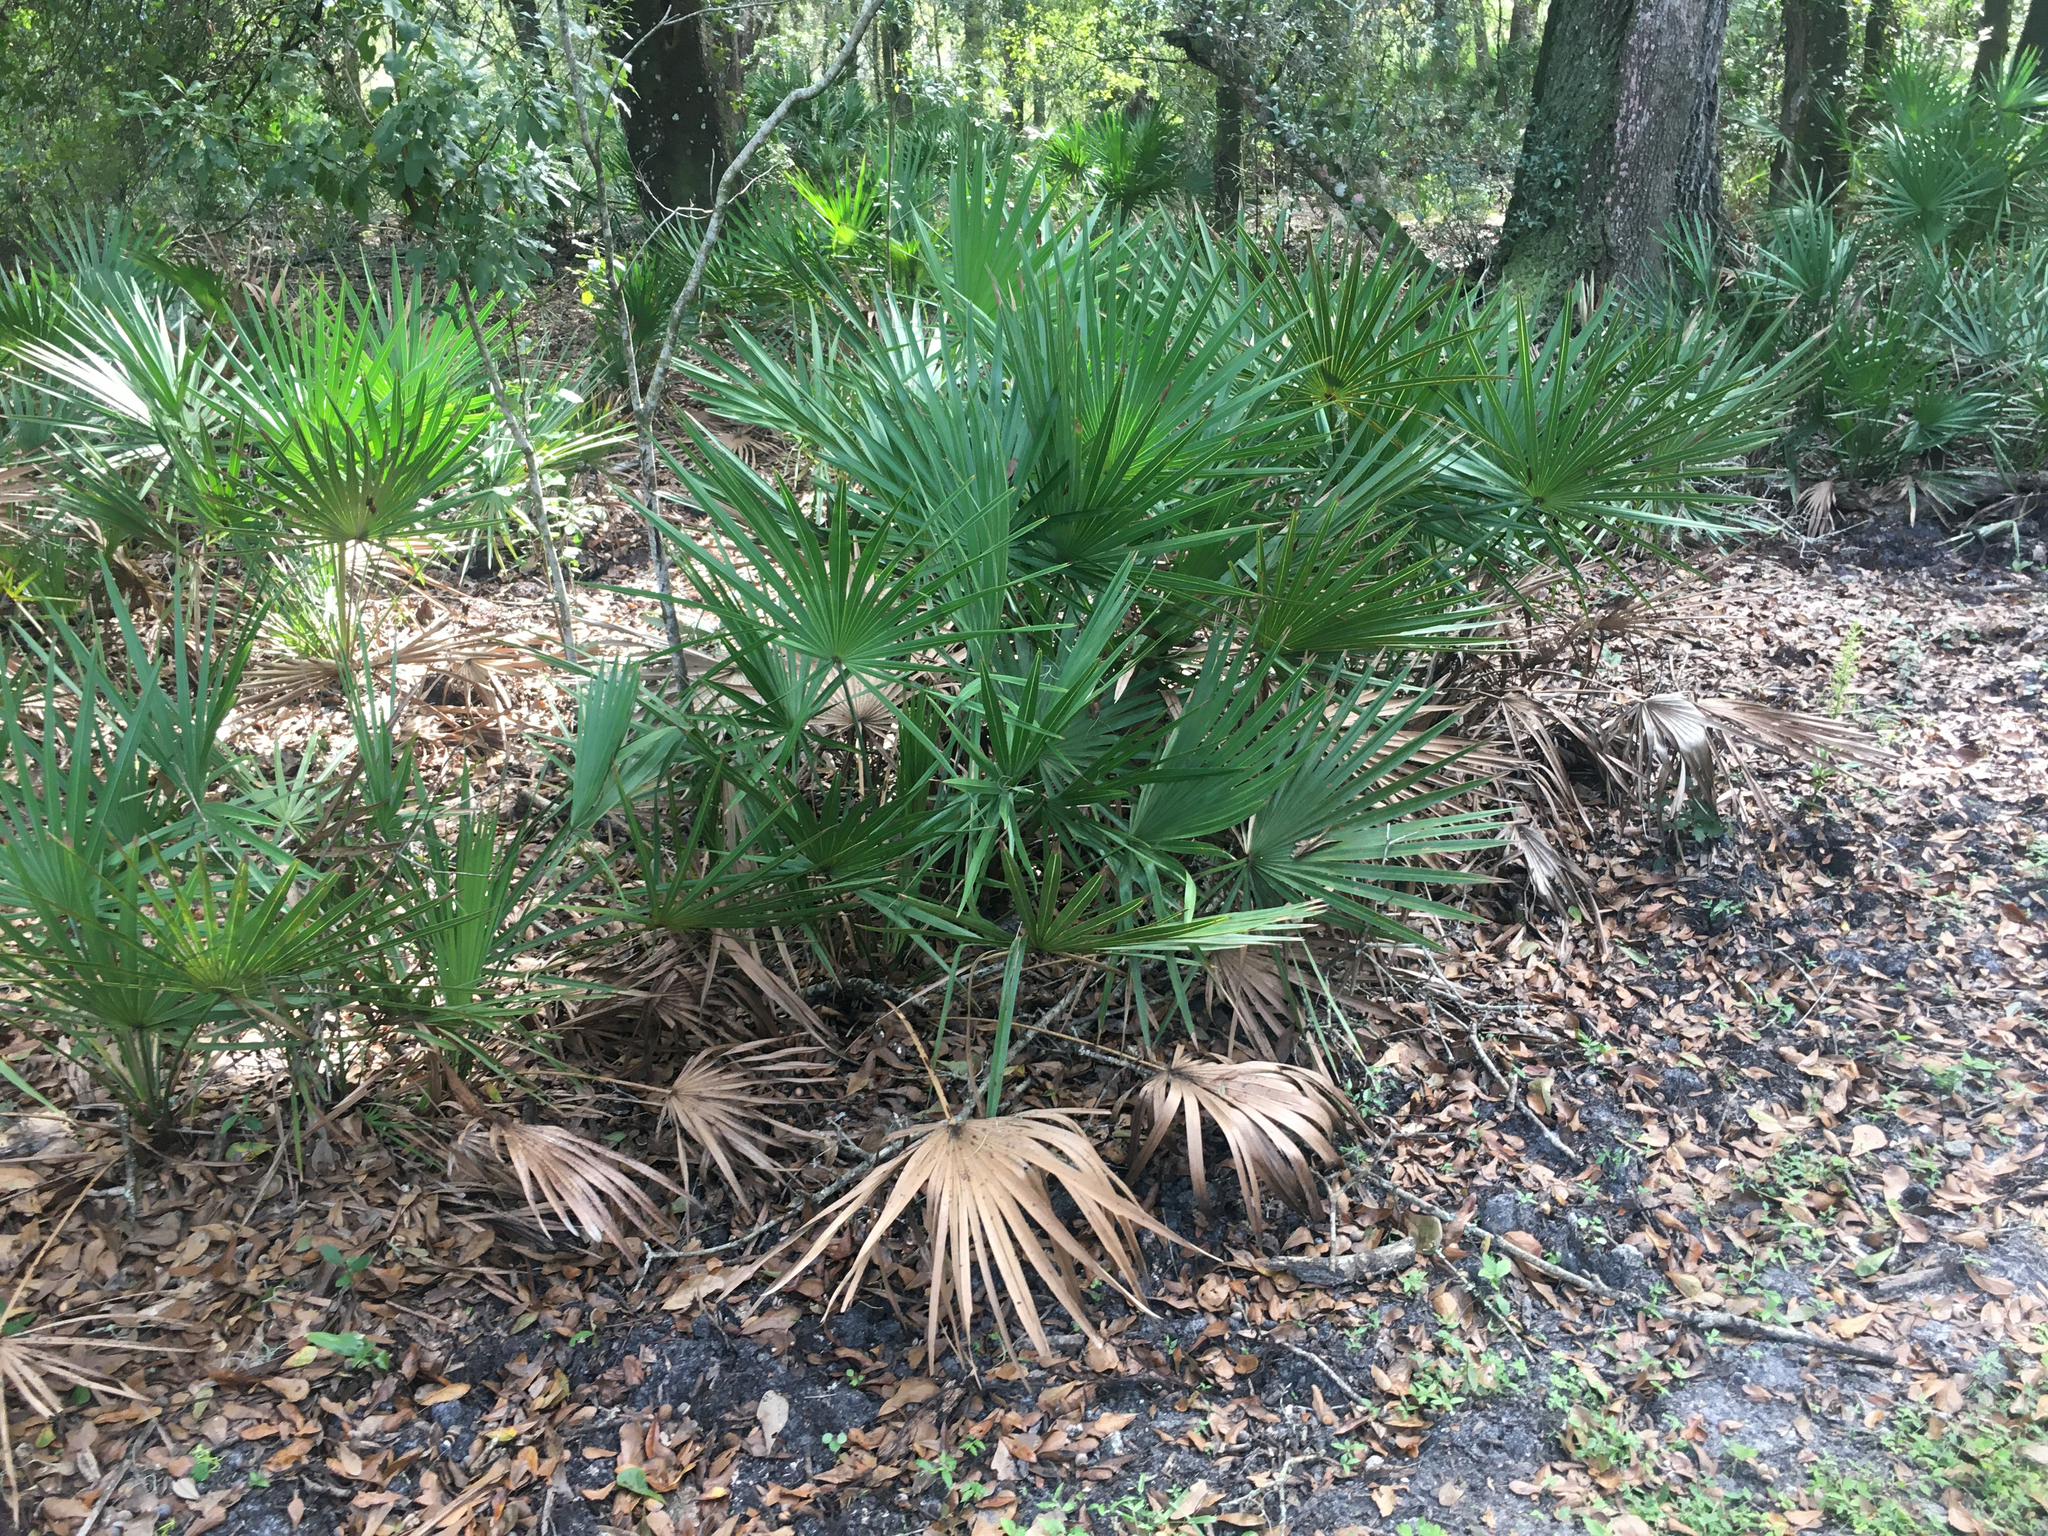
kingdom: Plantae
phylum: Tracheophyta
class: Liliopsida
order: Arecales
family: Arecaceae
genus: Serenoa
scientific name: Serenoa repens
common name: Saw-palmetto
